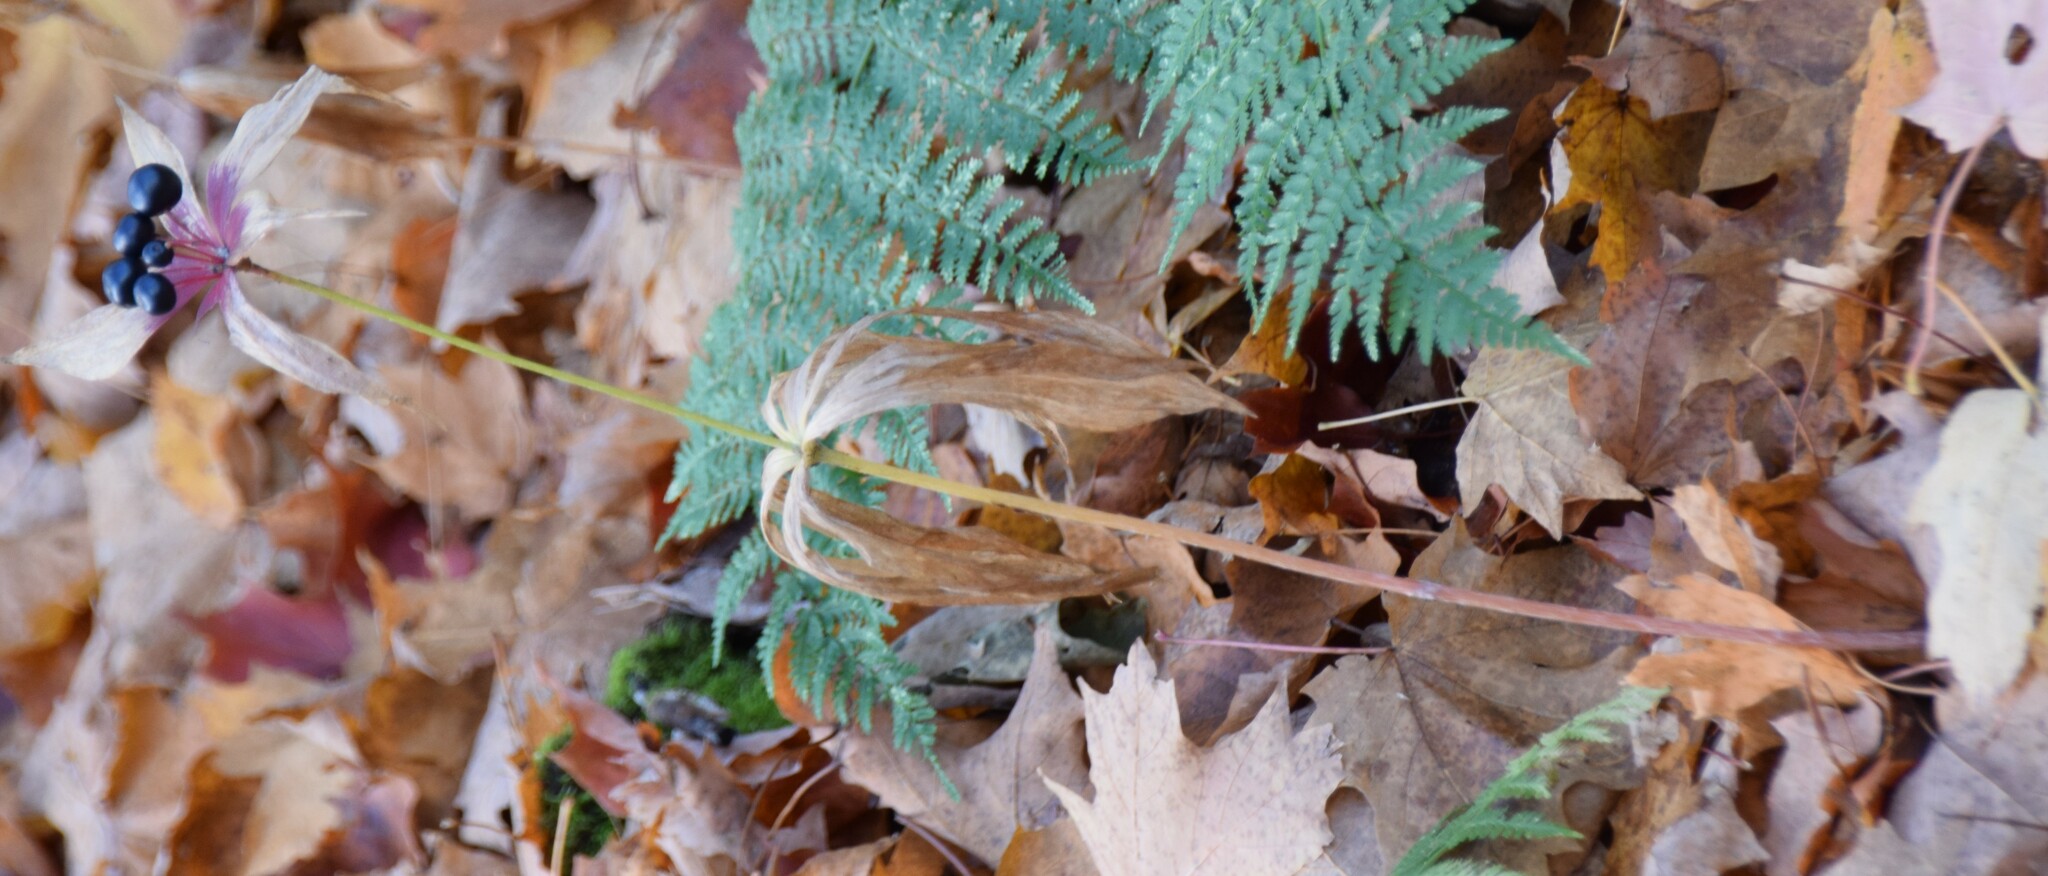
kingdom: Plantae
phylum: Tracheophyta
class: Liliopsida
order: Liliales
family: Liliaceae
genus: Medeola
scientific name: Medeola virginiana
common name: Indian cucumber-root
